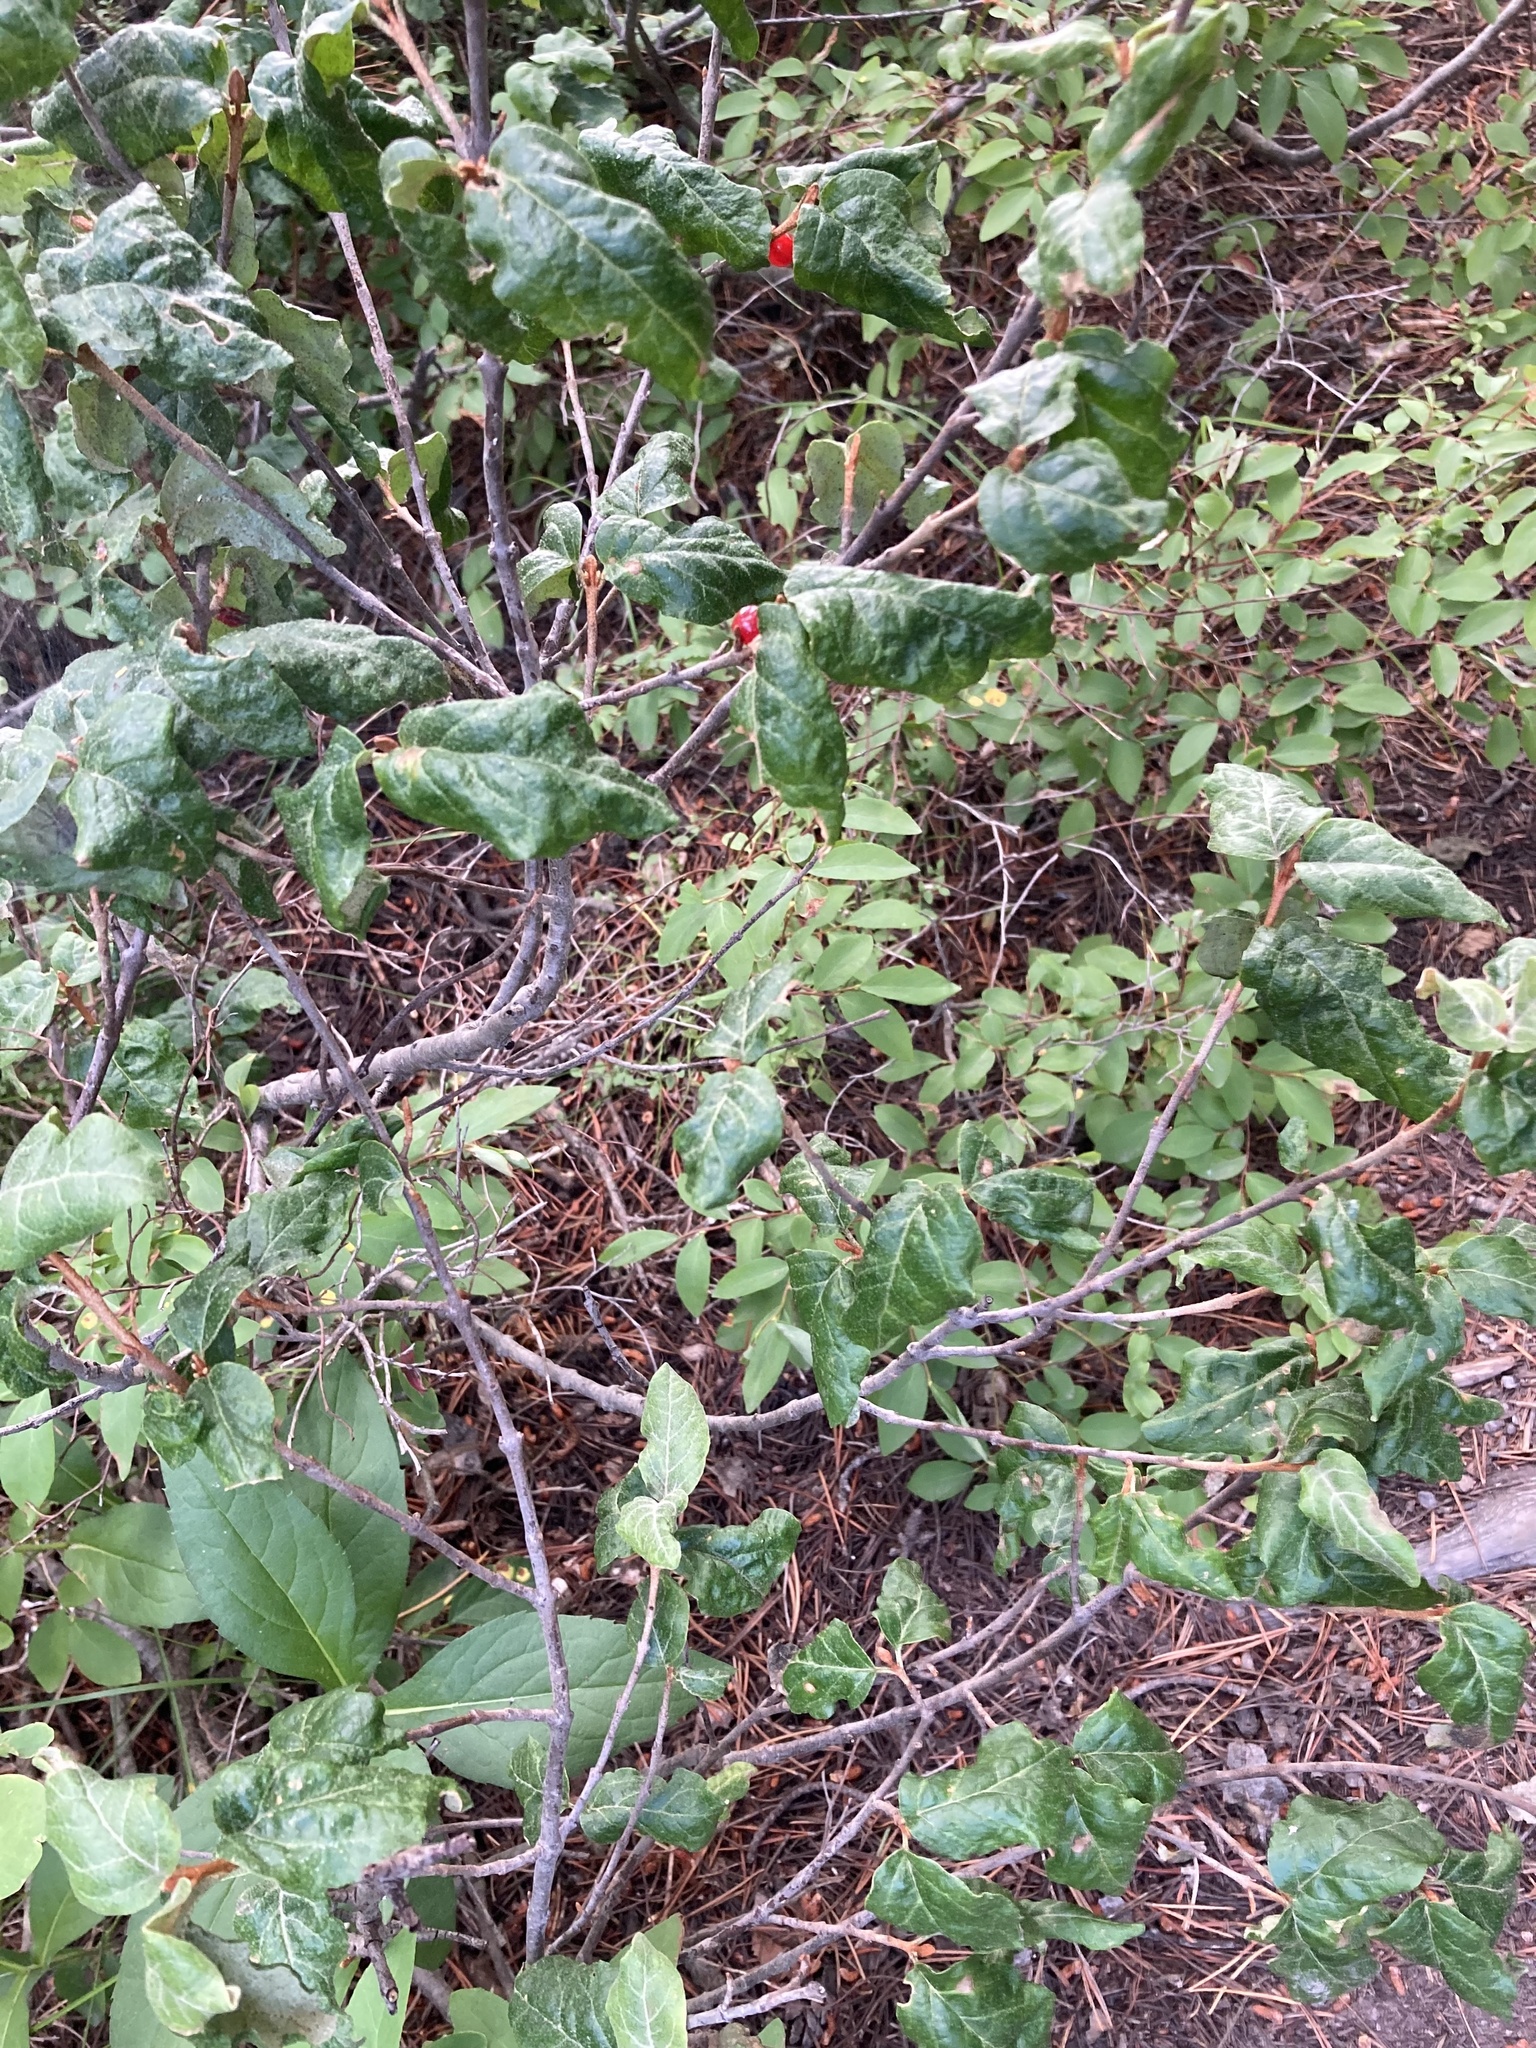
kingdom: Plantae
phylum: Tracheophyta
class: Magnoliopsida
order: Rosales
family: Elaeagnaceae
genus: Shepherdia
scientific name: Shepherdia canadensis
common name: Soapberry
